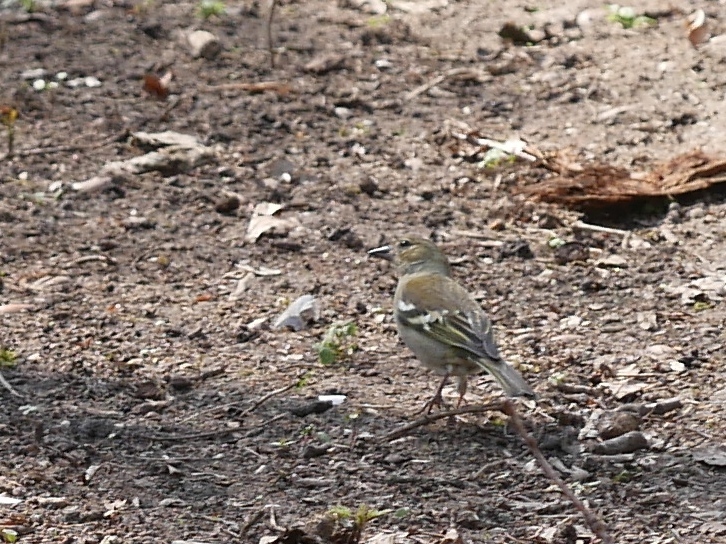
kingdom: Animalia
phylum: Chordata
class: Aves
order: Passeriformes
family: Fringillidae
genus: Fringilla
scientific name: Fringilla coelebs
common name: Common chaffinch
